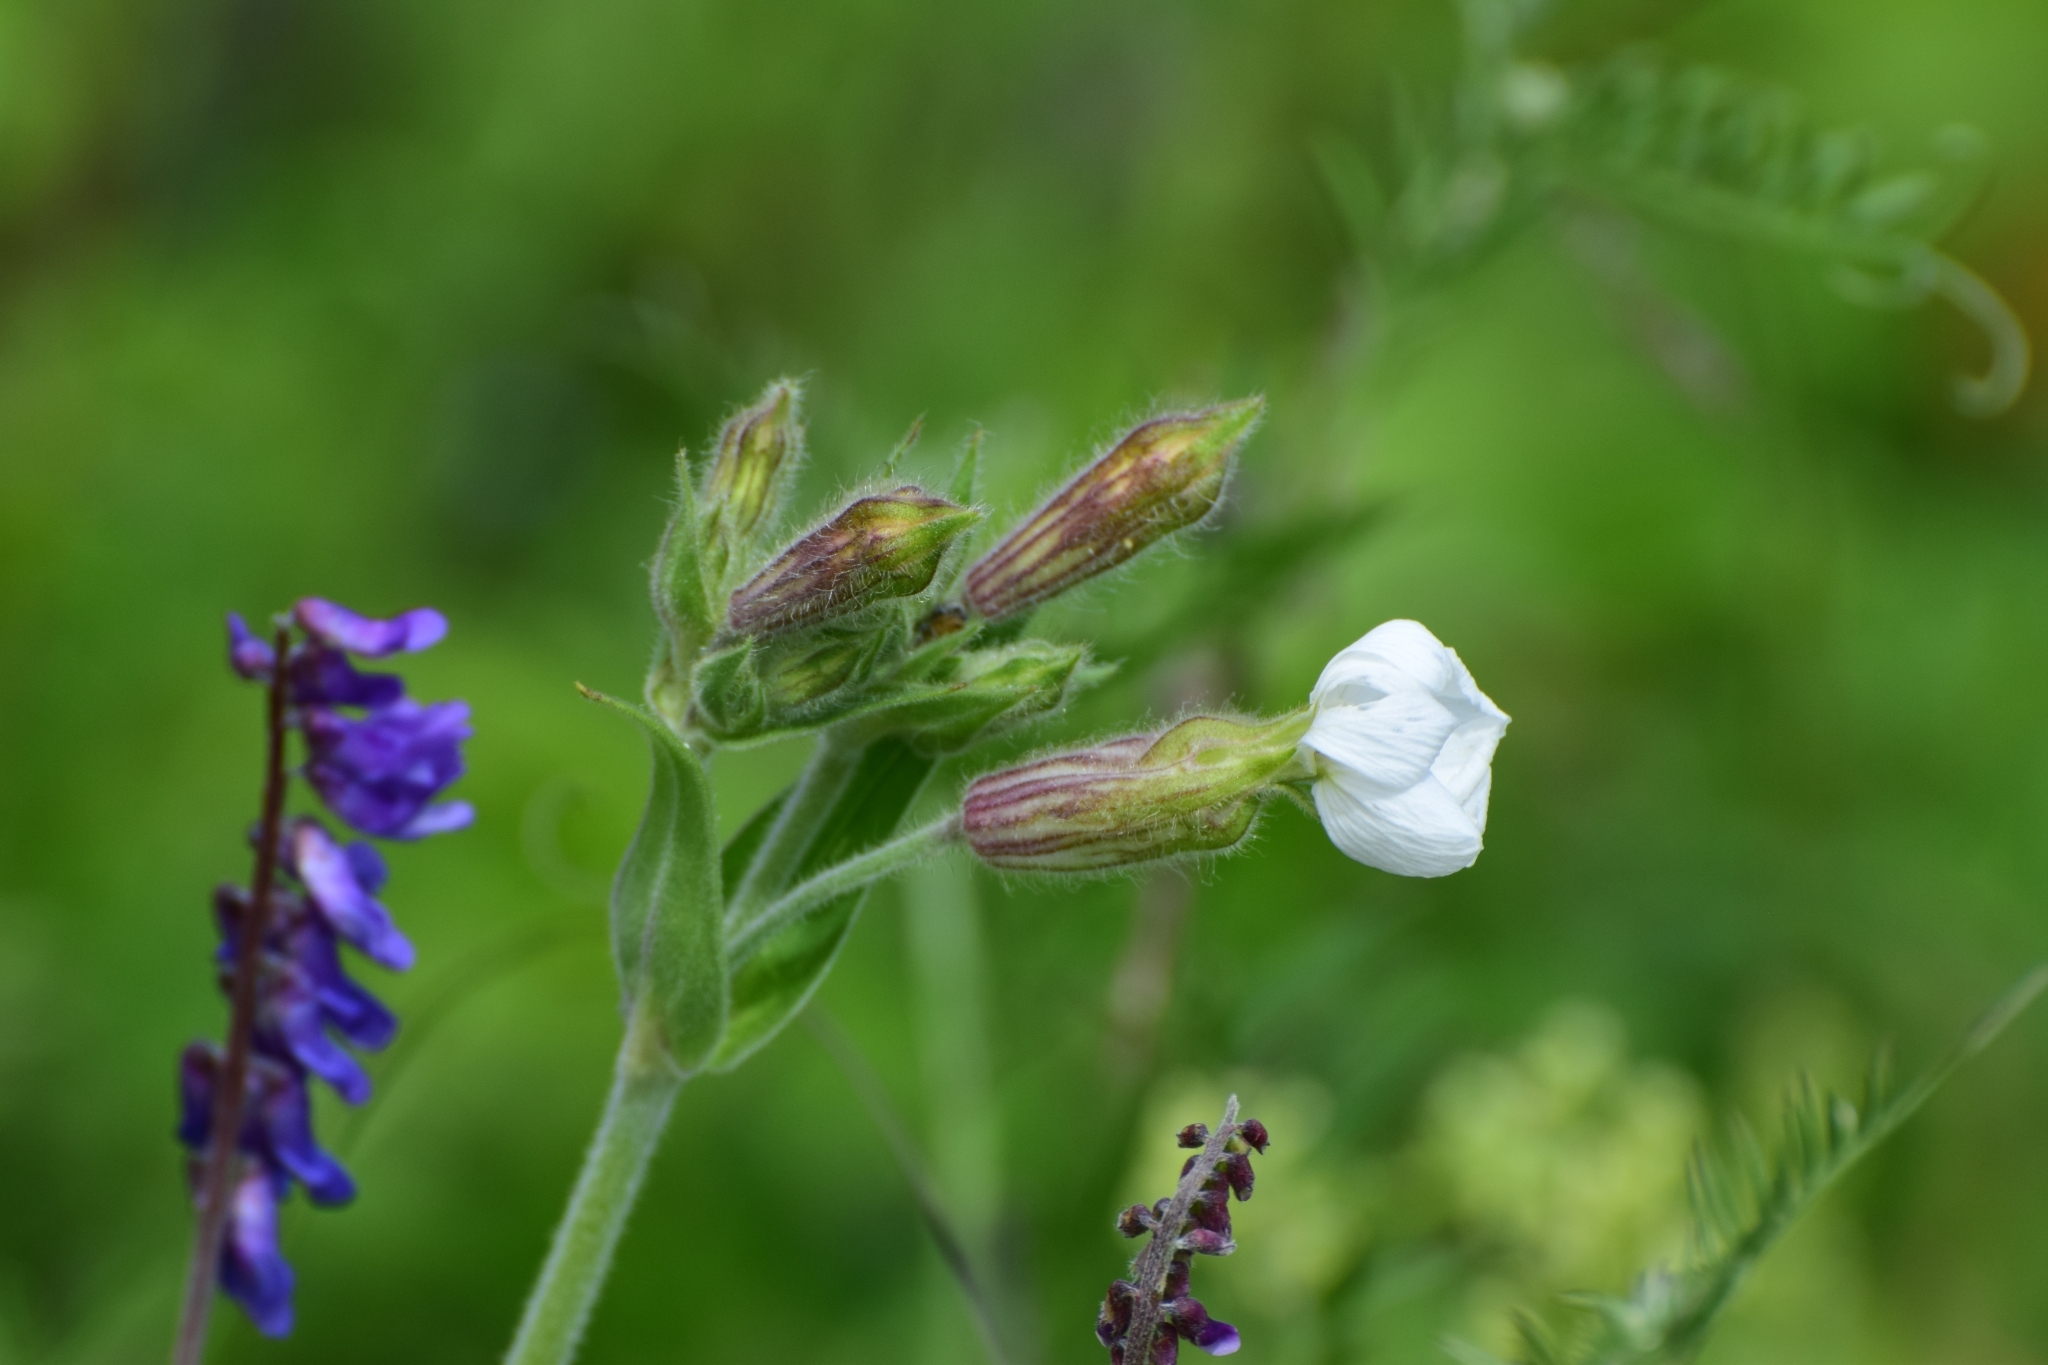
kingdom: Plantae
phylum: Tracheophyta
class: Magnoliopsida
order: Caryophyllales
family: Caryophyllaceae
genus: Silene
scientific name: Silene latifolia
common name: White campion
